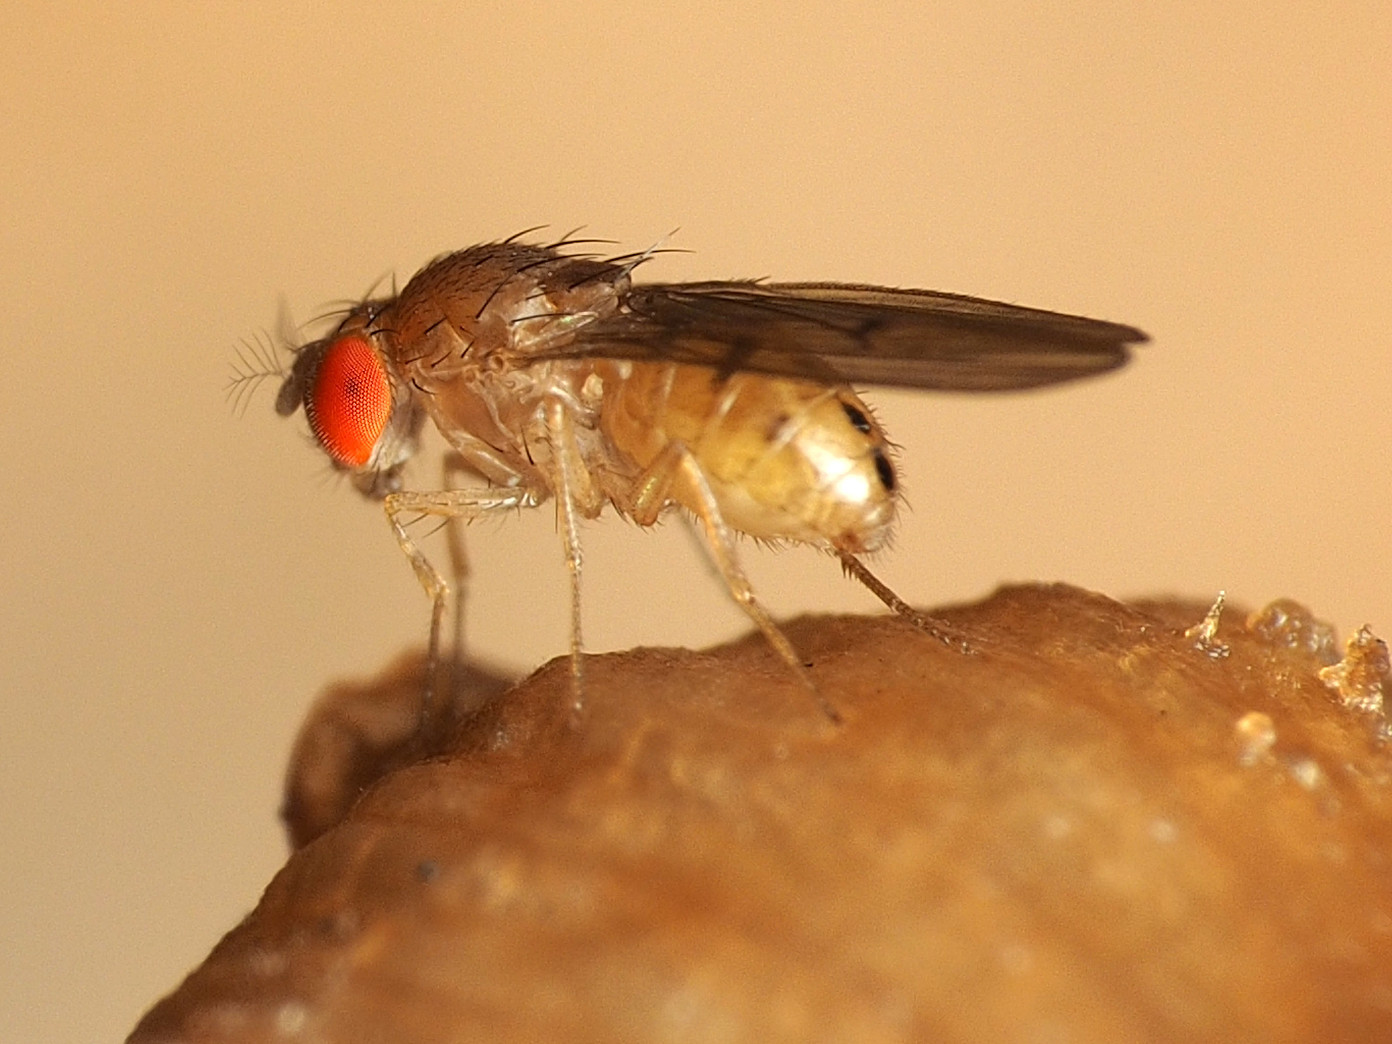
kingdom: Animalia
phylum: Arthropoda
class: Insecta
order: Diptera
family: Drosophilidae
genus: Drosophila
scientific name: Drosophila tripunctata
